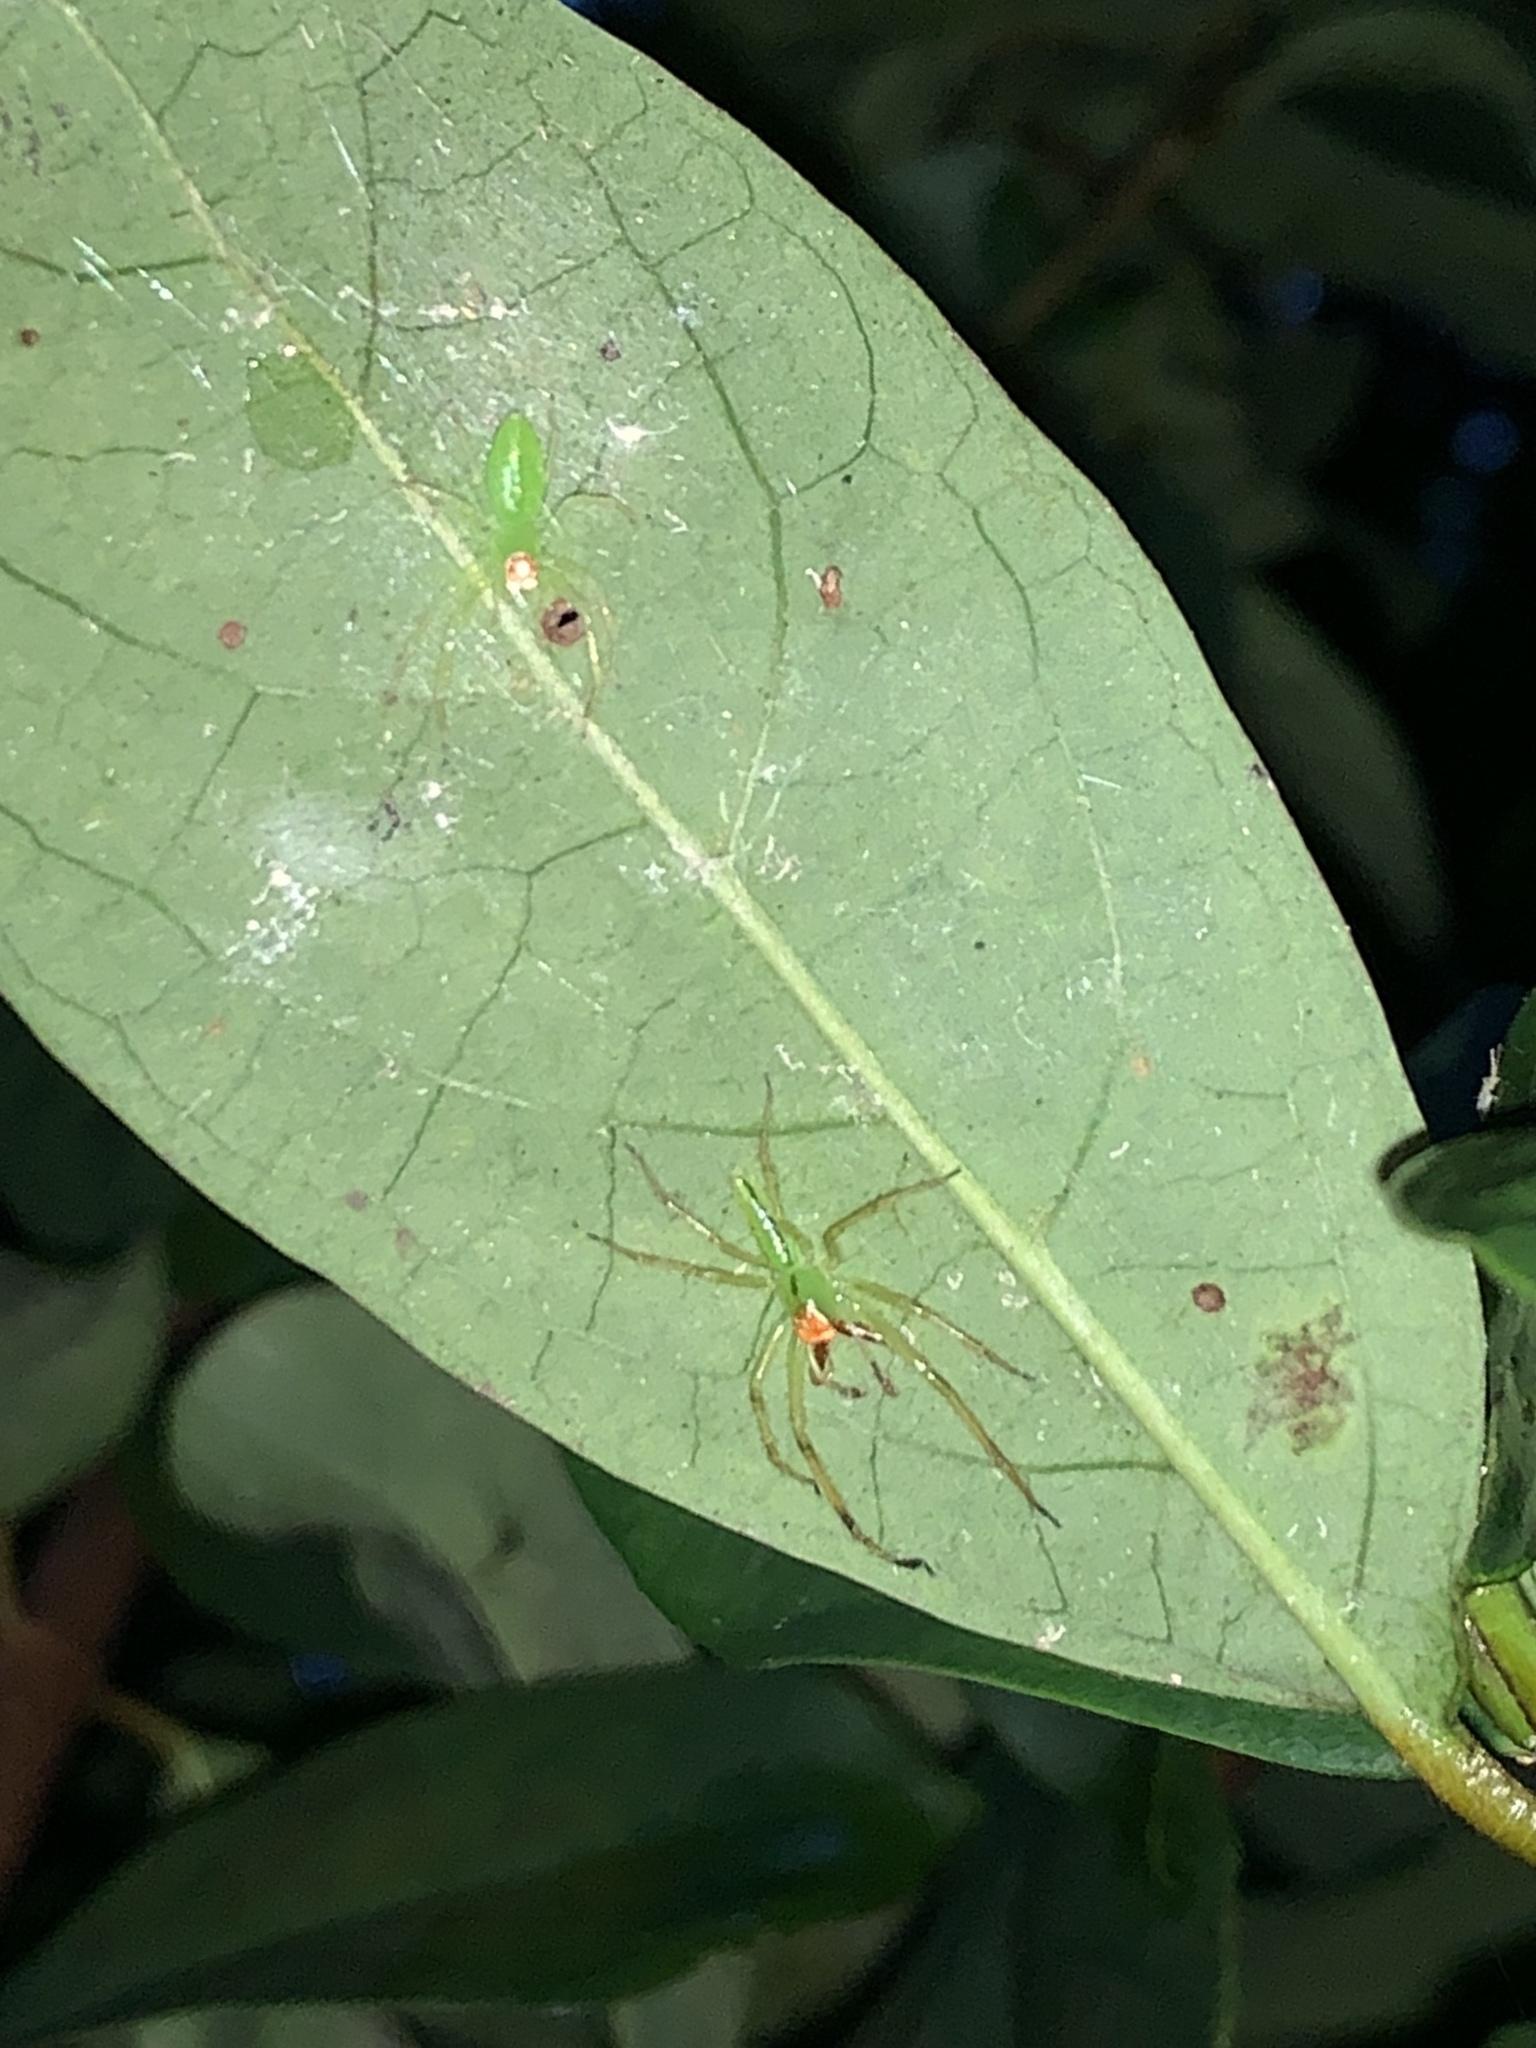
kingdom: Animalia
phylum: Arthropoda
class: Arachnida
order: Araneae
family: Salticidae
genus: Lyssomanes
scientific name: Lyssomanes viridis
